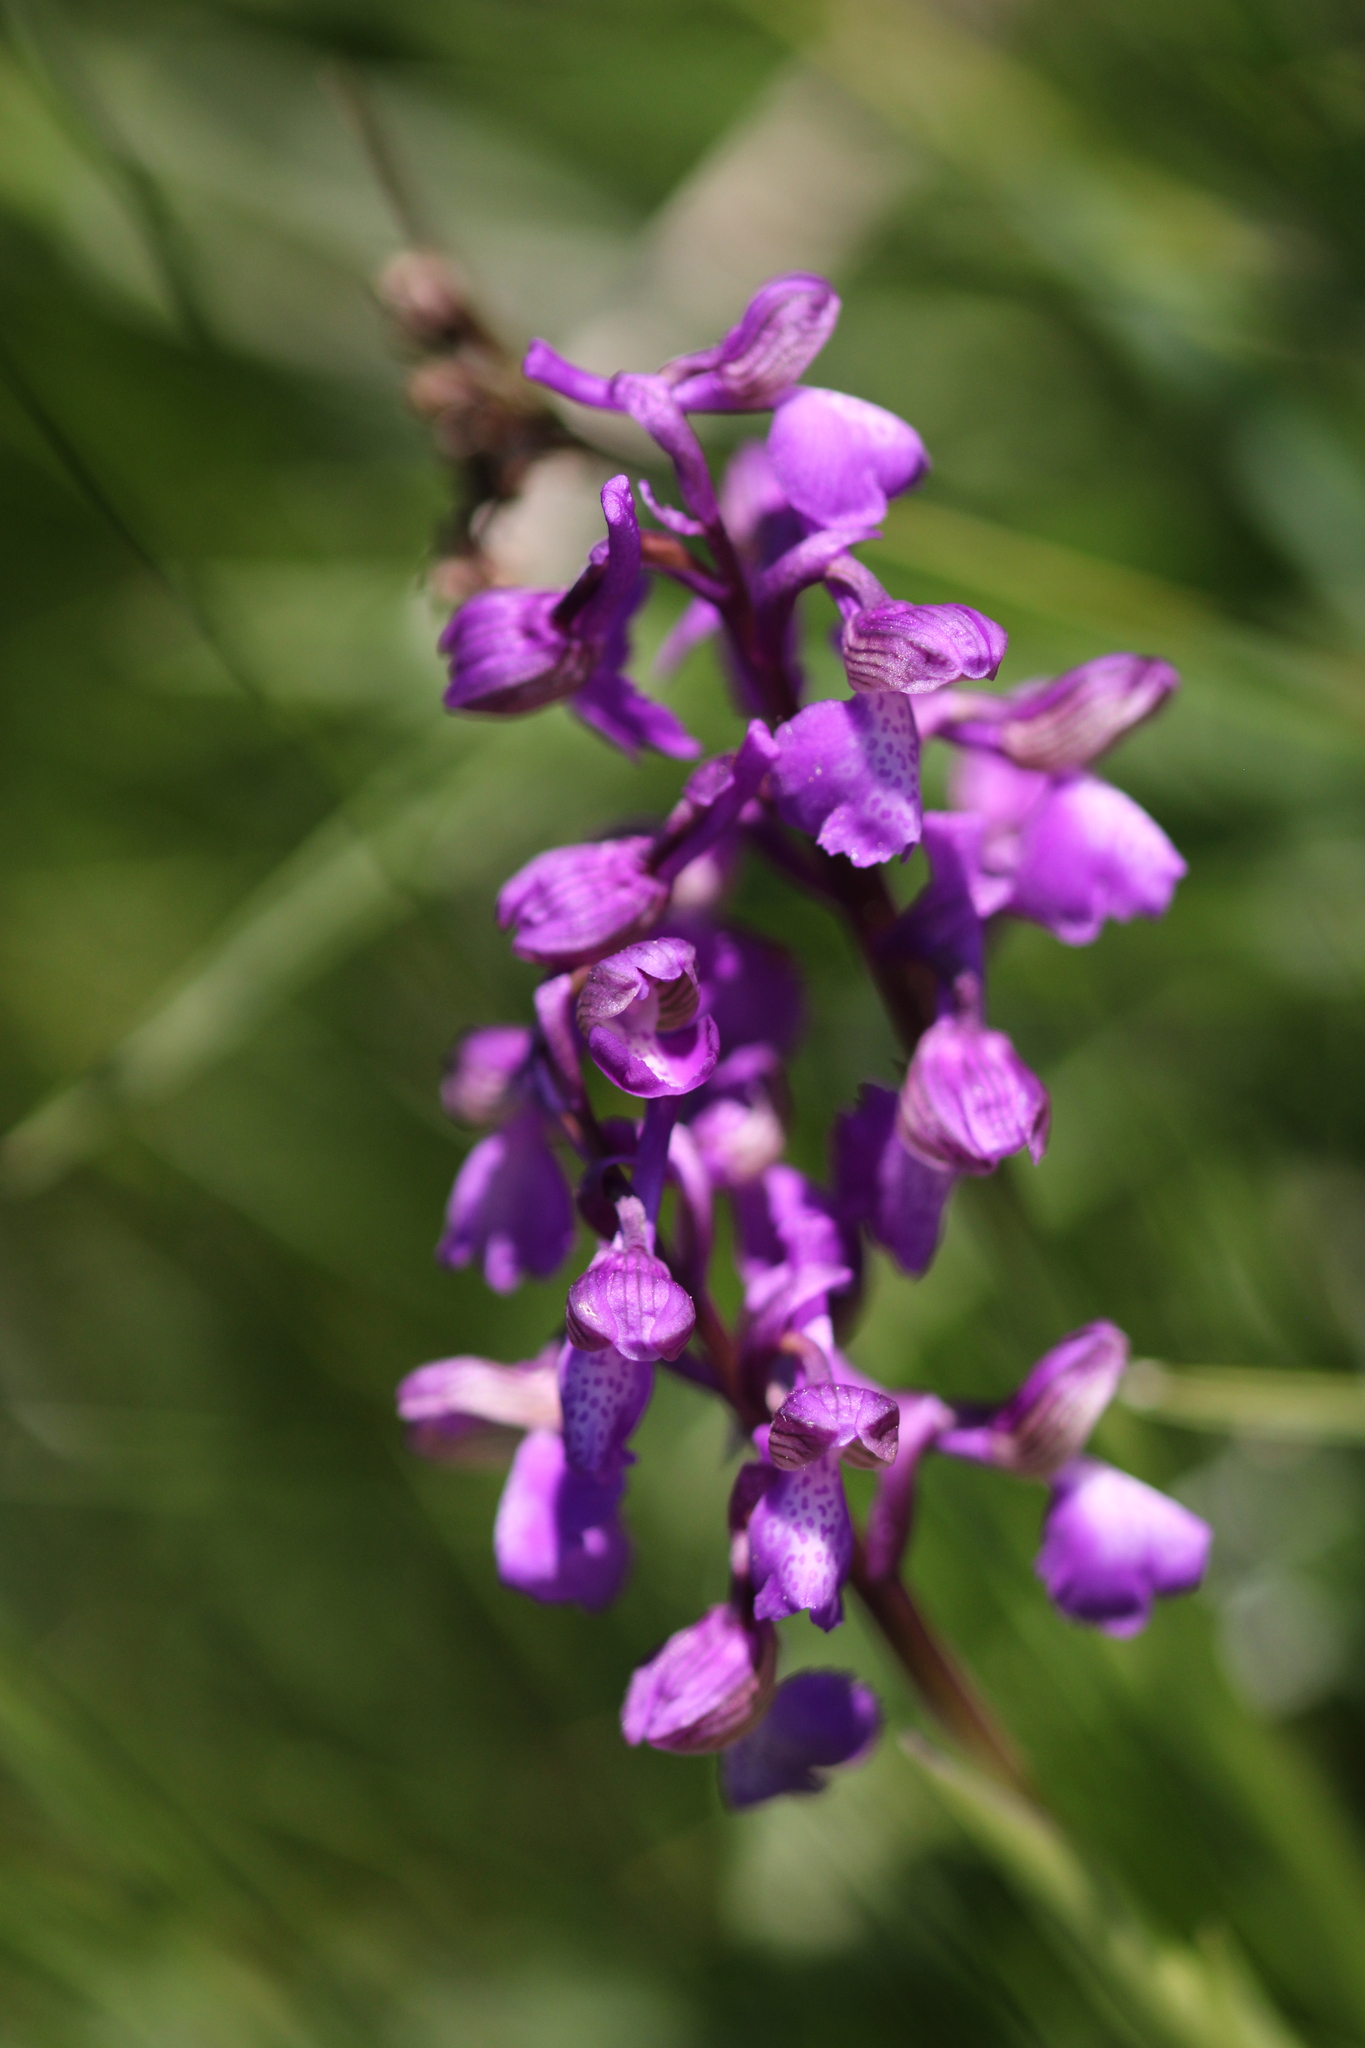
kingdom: Plantae
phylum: Tracheophyta
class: Liliopsida
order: Asparagales
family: Orchidaceae
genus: Anacamptis
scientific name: Anacamptis morio
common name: Green-winged orchid
